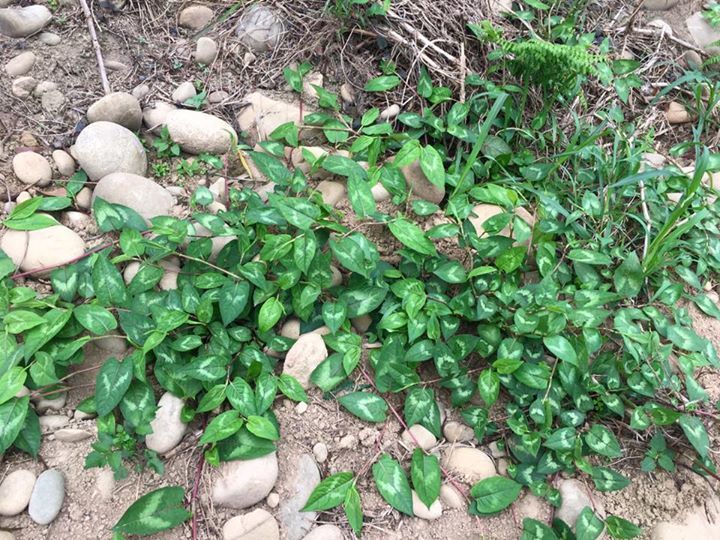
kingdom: Plantae
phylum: Tracheophyta
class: Magnoliopsida
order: Caryophyllales
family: Polygonaceae
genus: Persicaria
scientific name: Persicaria chinensis
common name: Chinese knotweed
